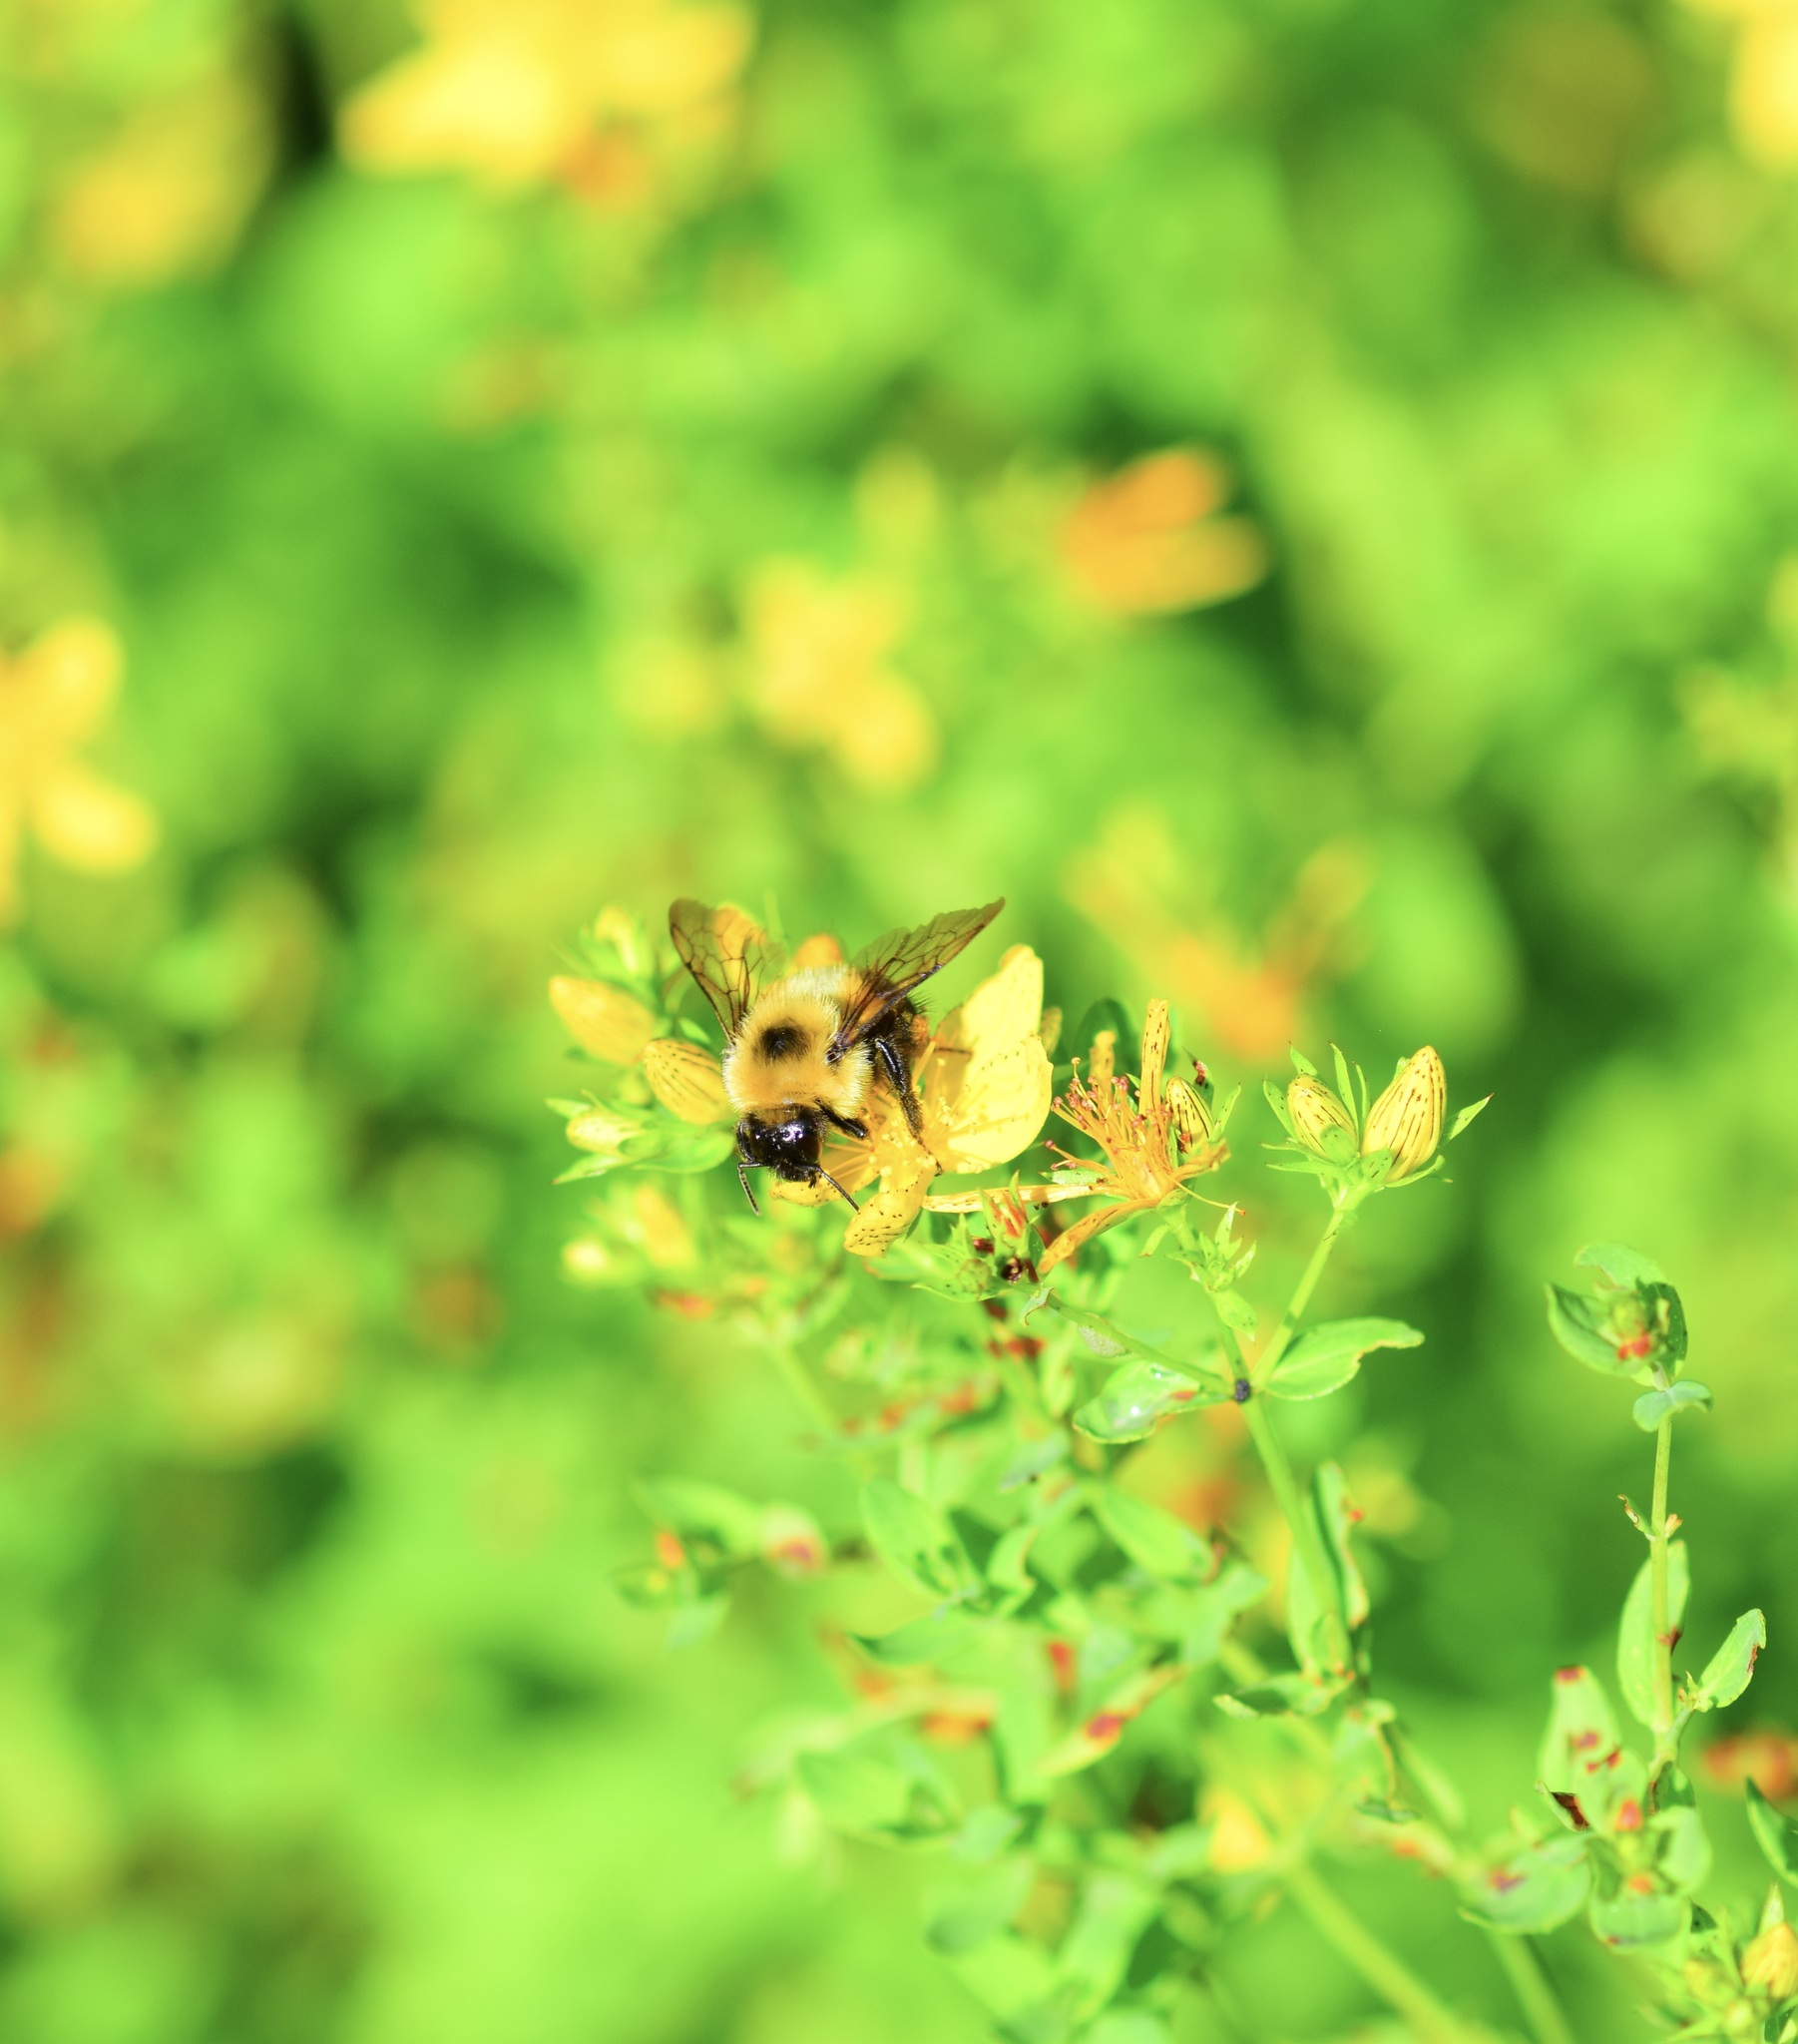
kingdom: Animalia
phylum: Arthropoda
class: Insecta
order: Hymenoptera
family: Apidae
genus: Bombus
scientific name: Bombus bimaculatus
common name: Two-spotted bumble bee
